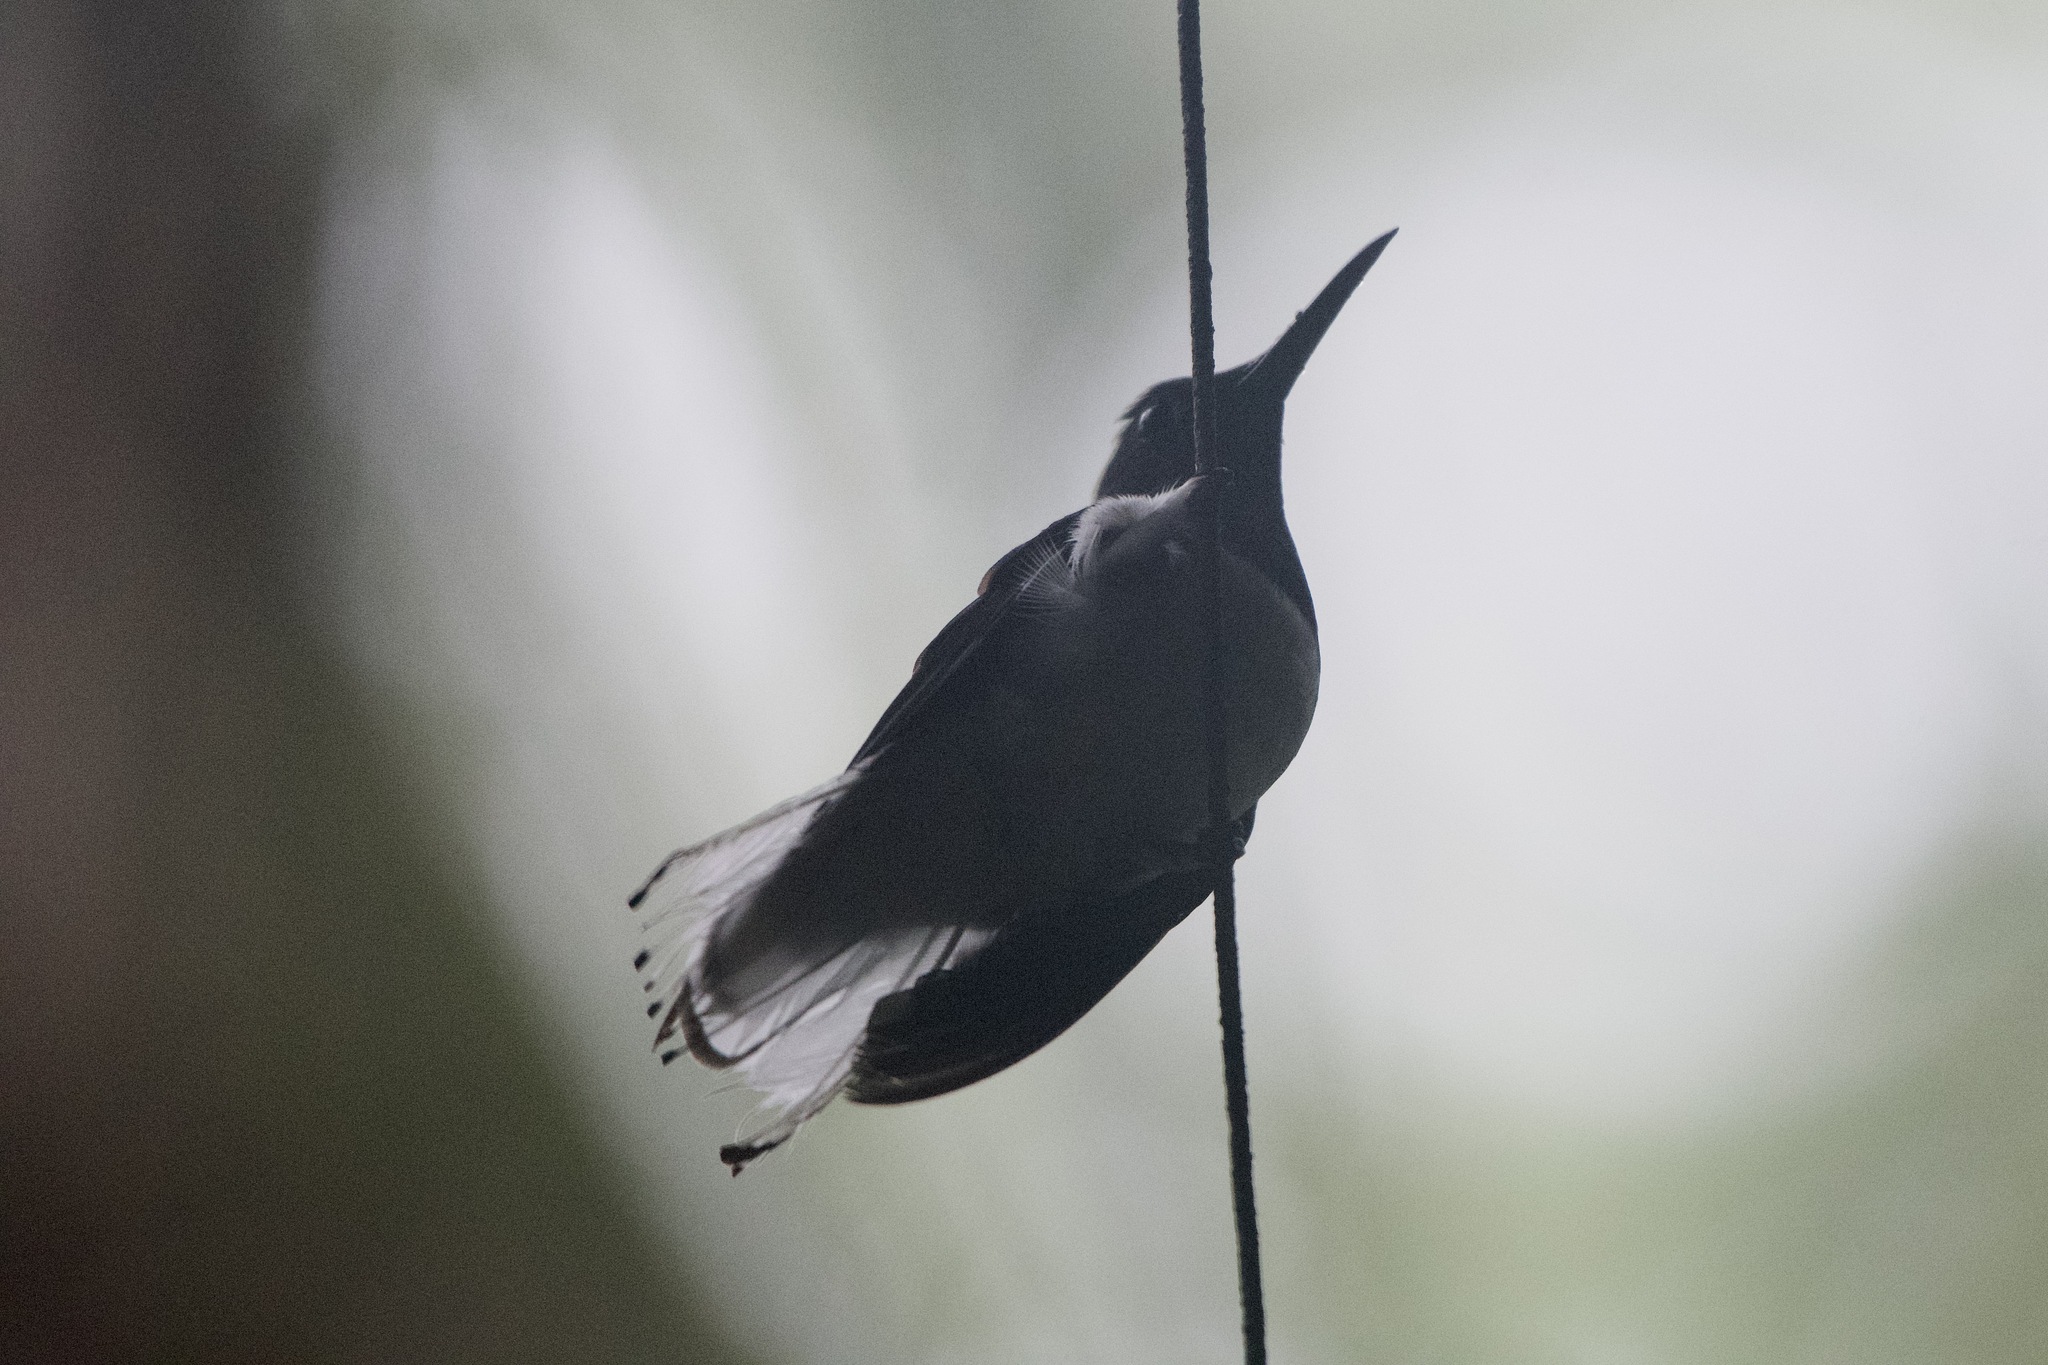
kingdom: Animalia
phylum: Chordata
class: Aves
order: Apodiformes
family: Trochilidae
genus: Florisuga
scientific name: Florisuga mellivora
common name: White-necked jacobin
